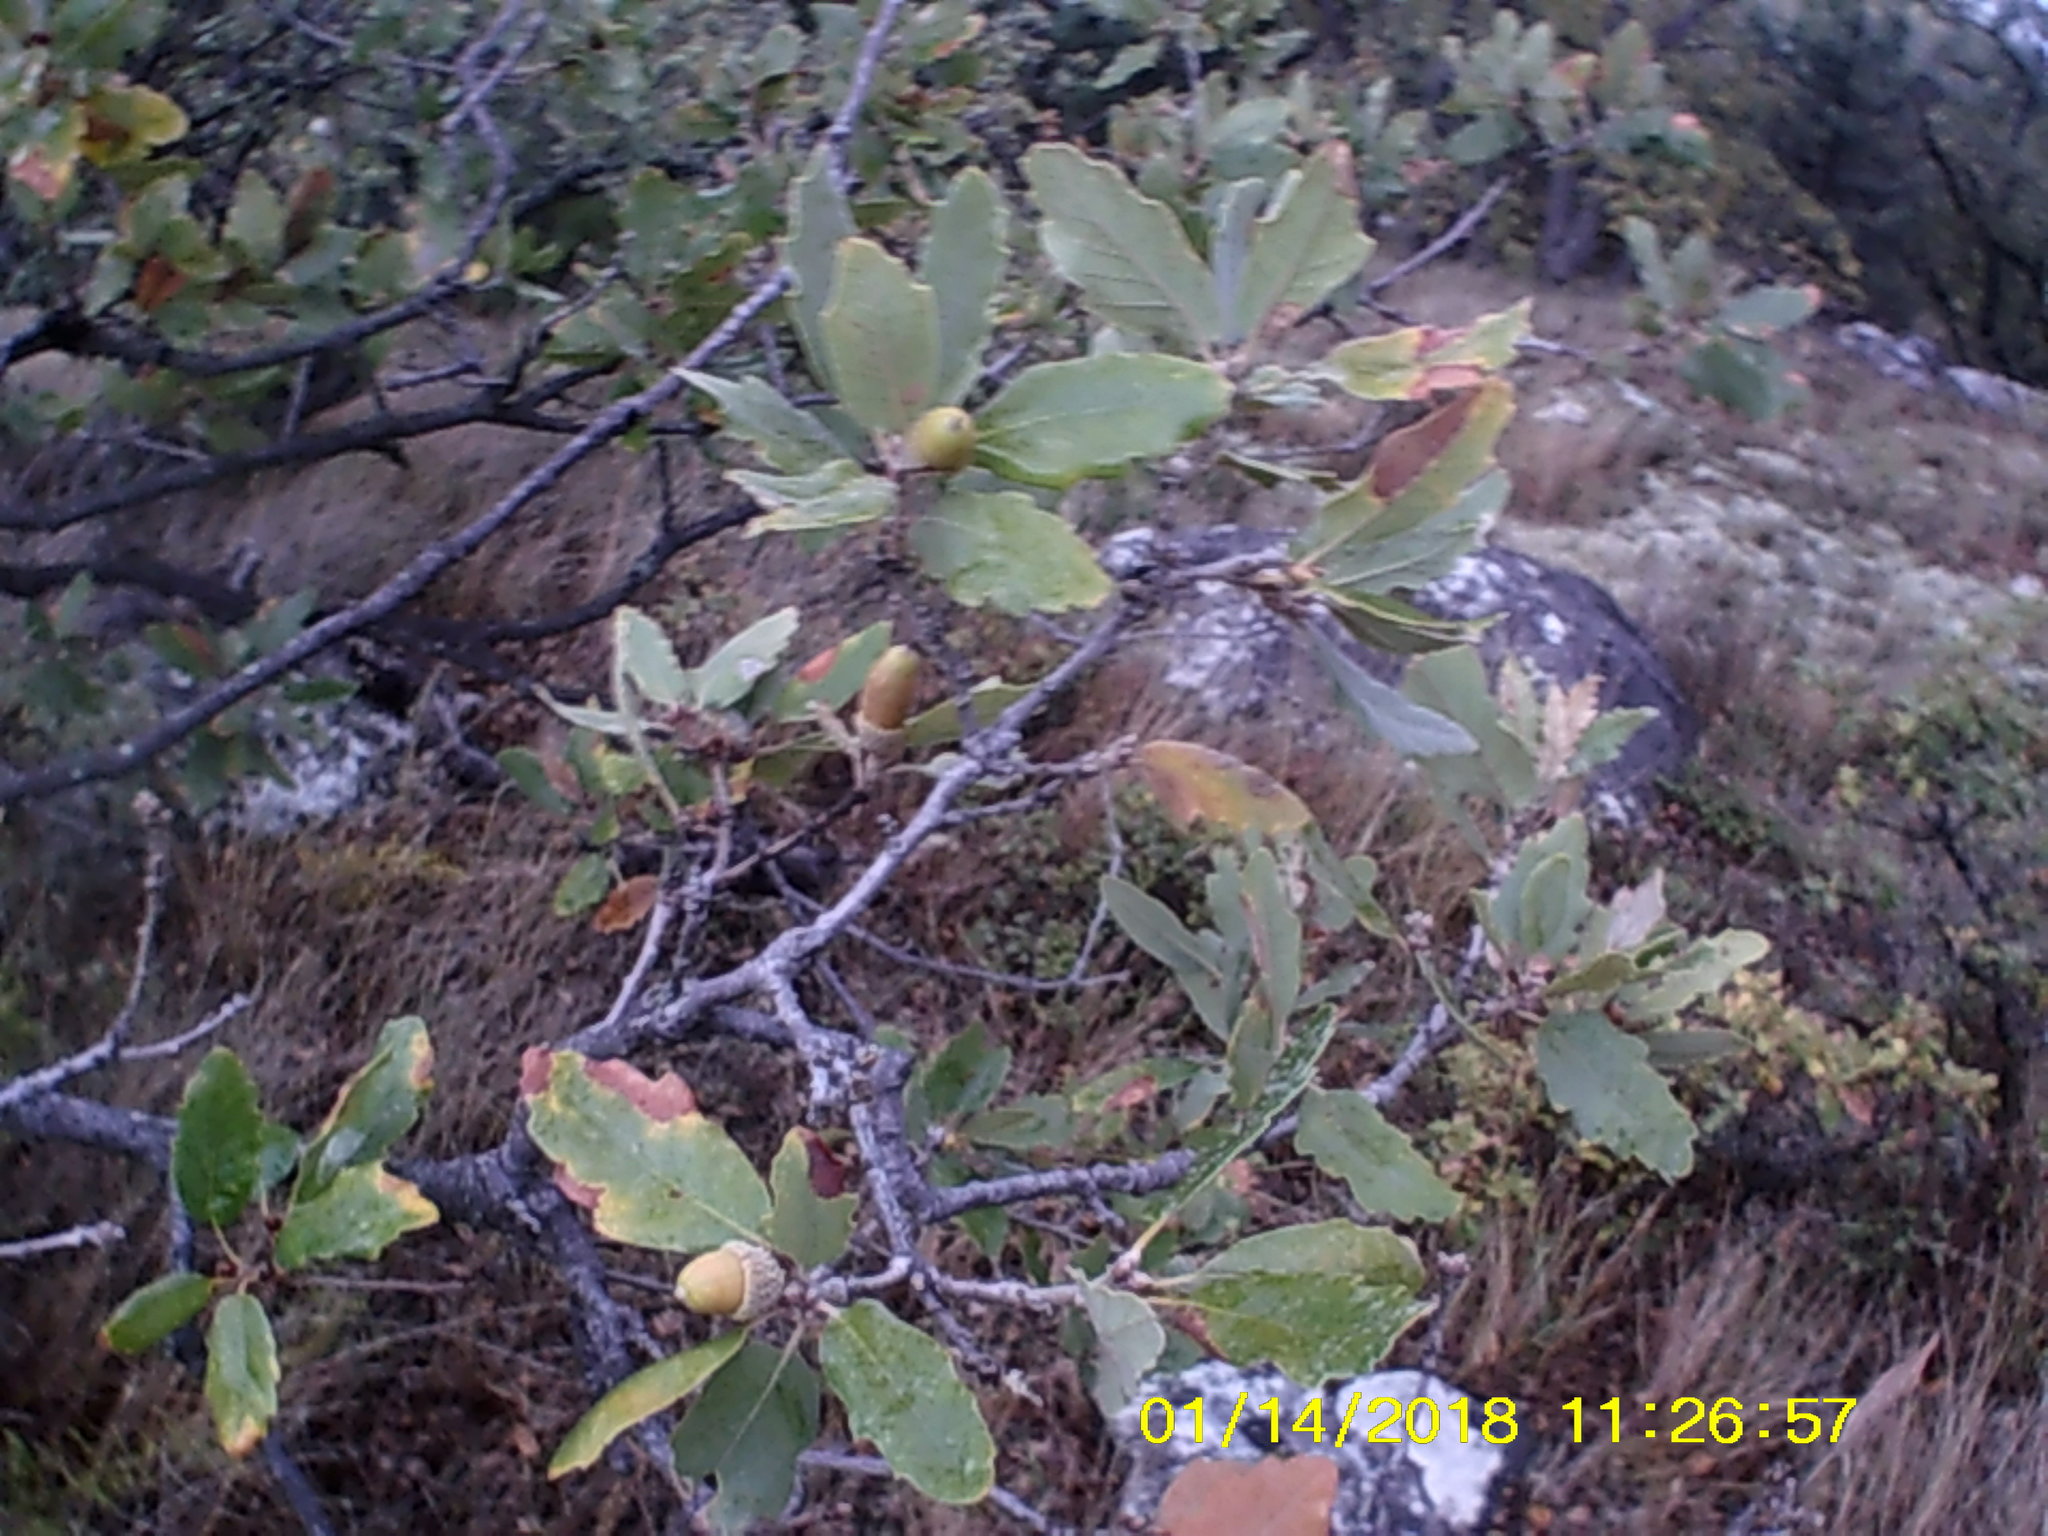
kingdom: Plantae
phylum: Tracheophyta
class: Magnoliopsida
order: Fagales
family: Fagaceae
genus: Quercus
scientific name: Quercus pubescens
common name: Downy oak
